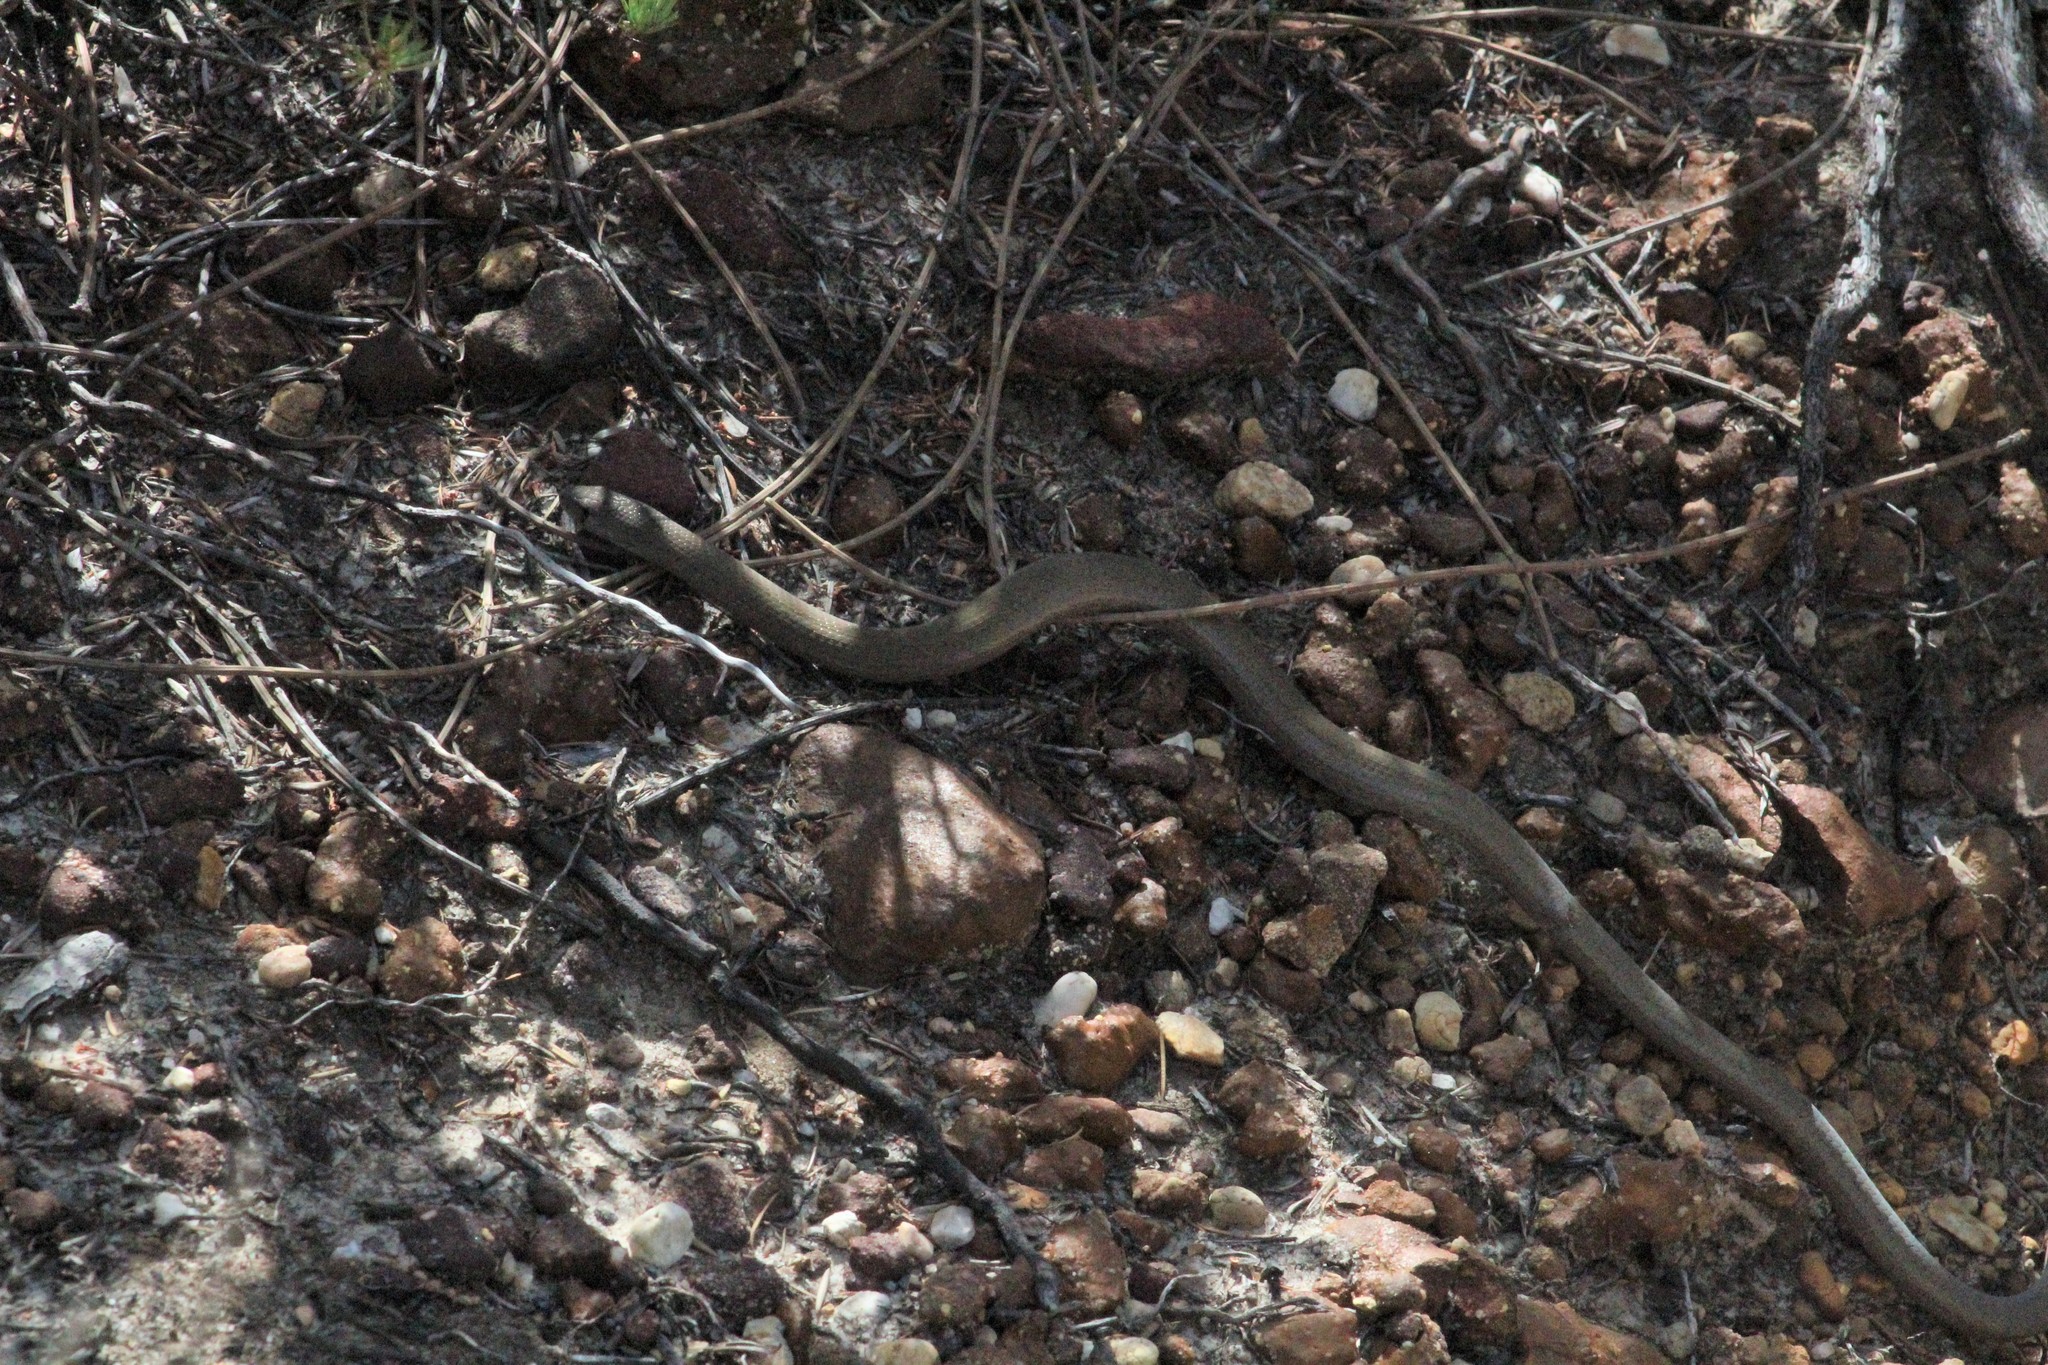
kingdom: Animalia
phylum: Chordata
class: Squamata
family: Pygopodidae
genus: Pygopus
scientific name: Pygopus lepidopodus
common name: Southern scaly-foot
